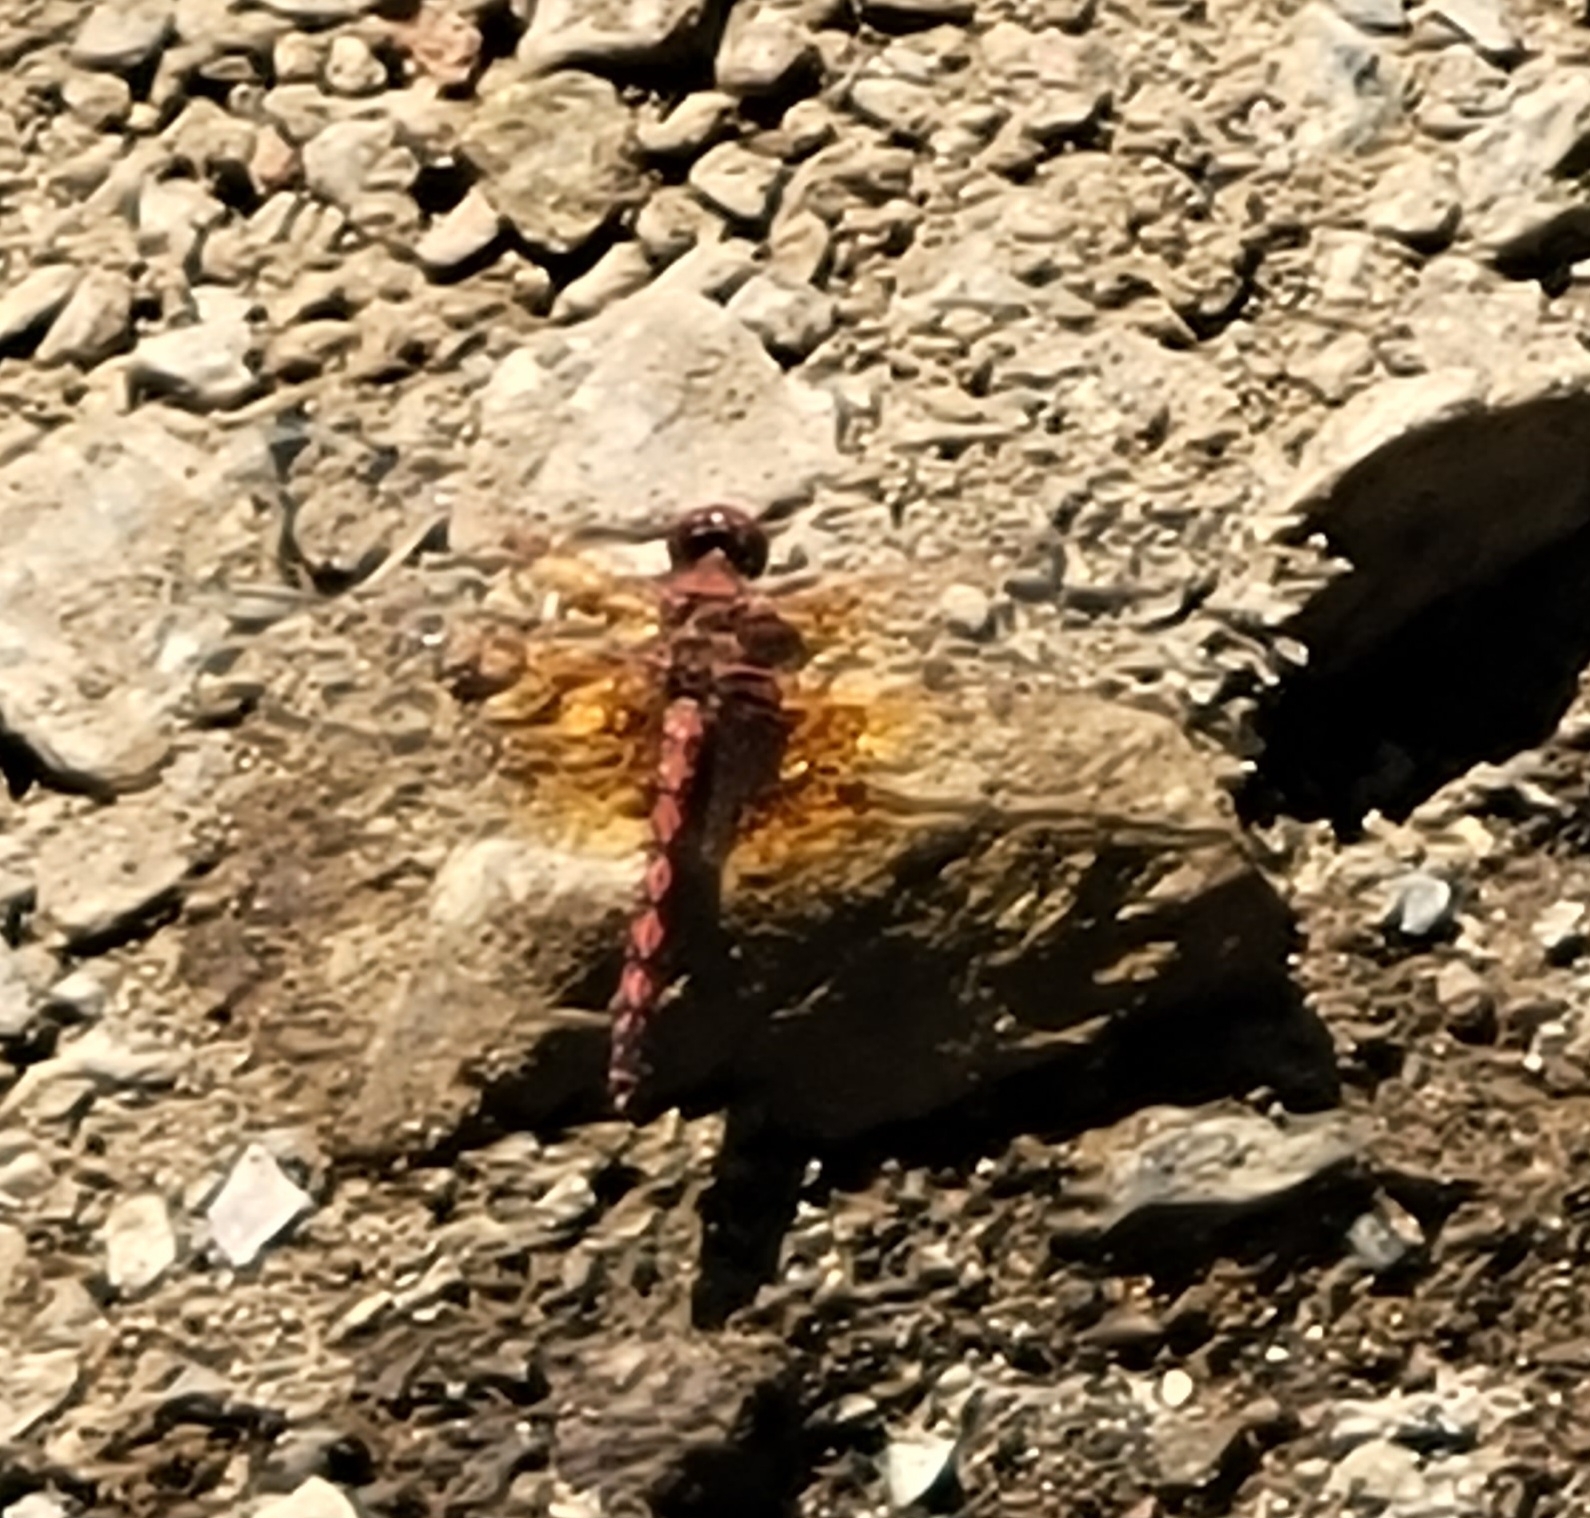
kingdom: Animalia
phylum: Arthropoda
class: Insecta
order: Odonata
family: Libellulidae
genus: Paltothemis
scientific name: Paltothemis lineatipes
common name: Red rock skimmer
